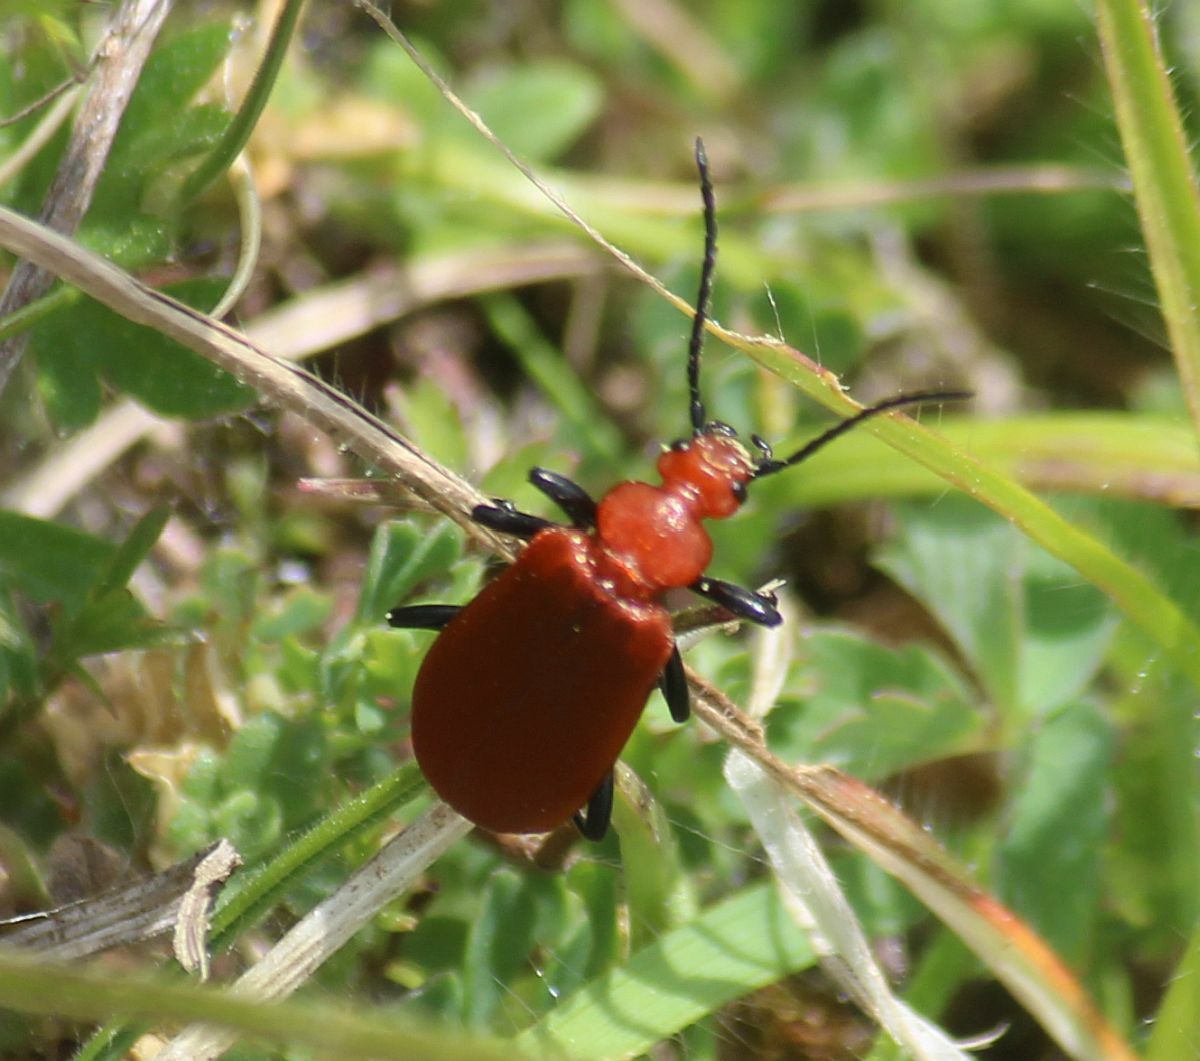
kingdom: Animalia
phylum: Arthropoda
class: Insecta
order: Coleoptera
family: Pyrochroidae
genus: Pyrochroa
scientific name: Pyrochroa serraticornis
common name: Red-headed cardinal beetle
